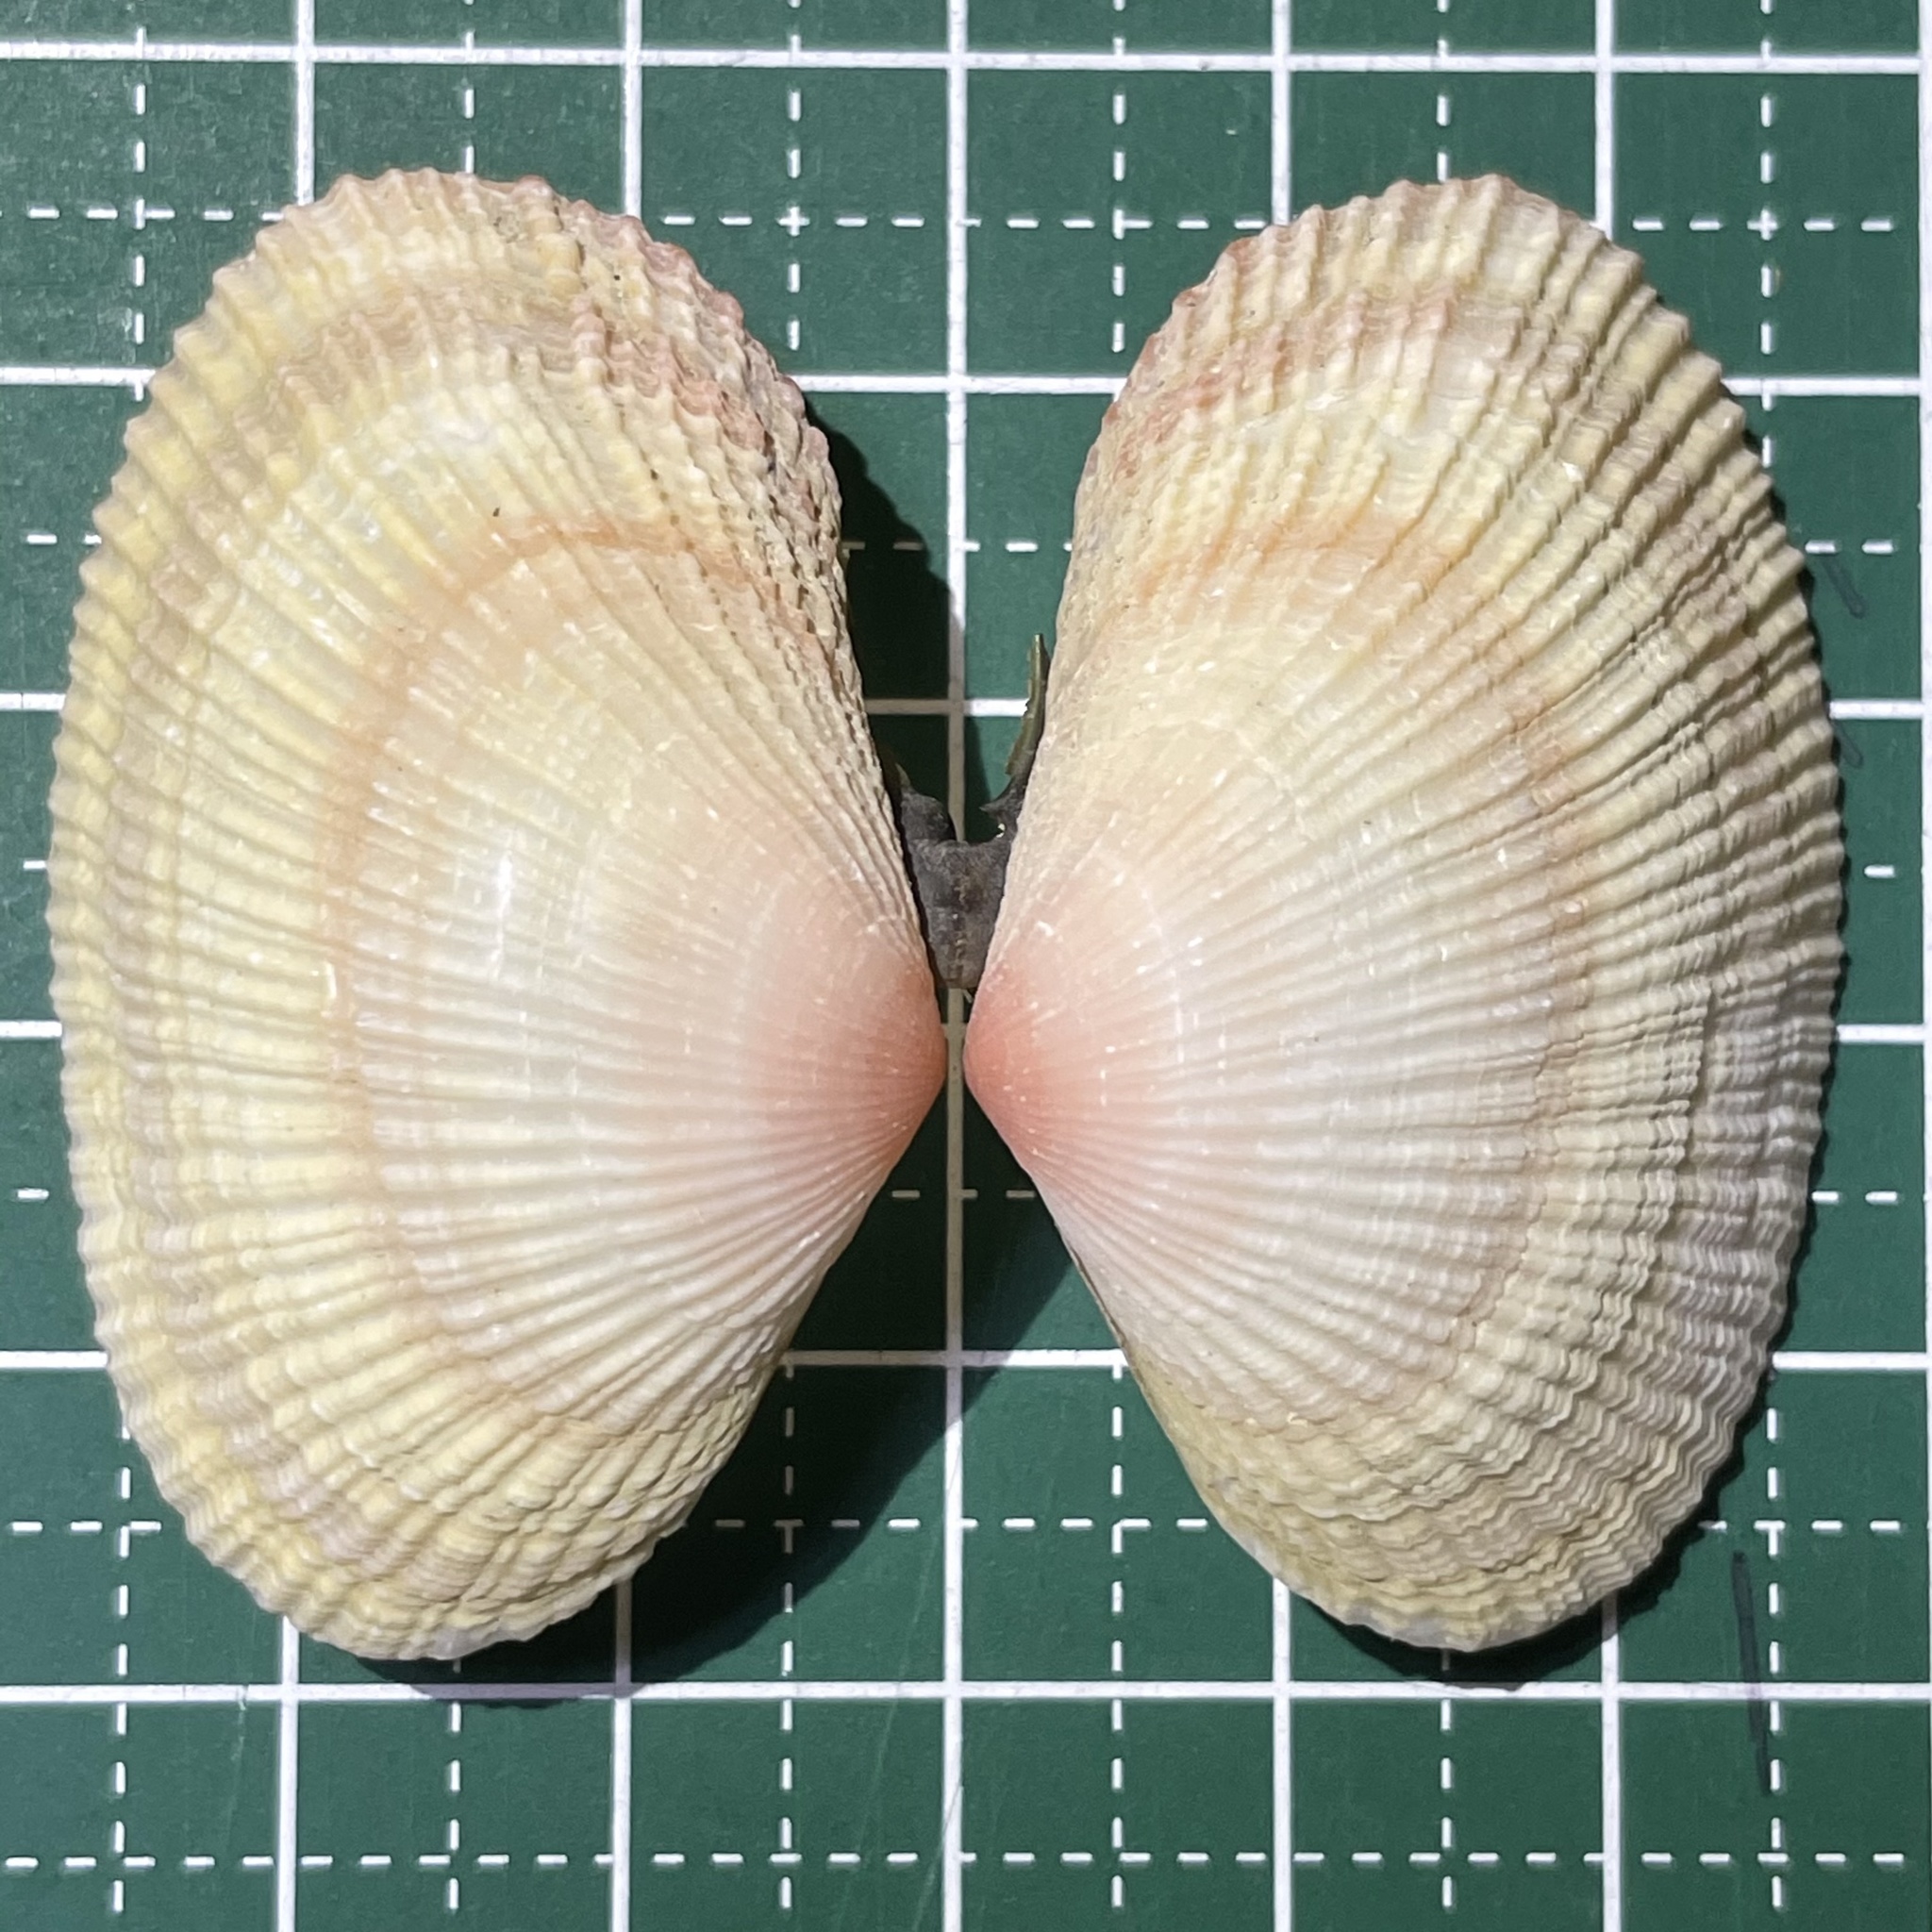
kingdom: Animalia
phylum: Mollusca
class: Bivalvia
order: Cardiida
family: Psammobiidae
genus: Asaphis
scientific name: Asaphis violascens
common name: Pacific asaphis
